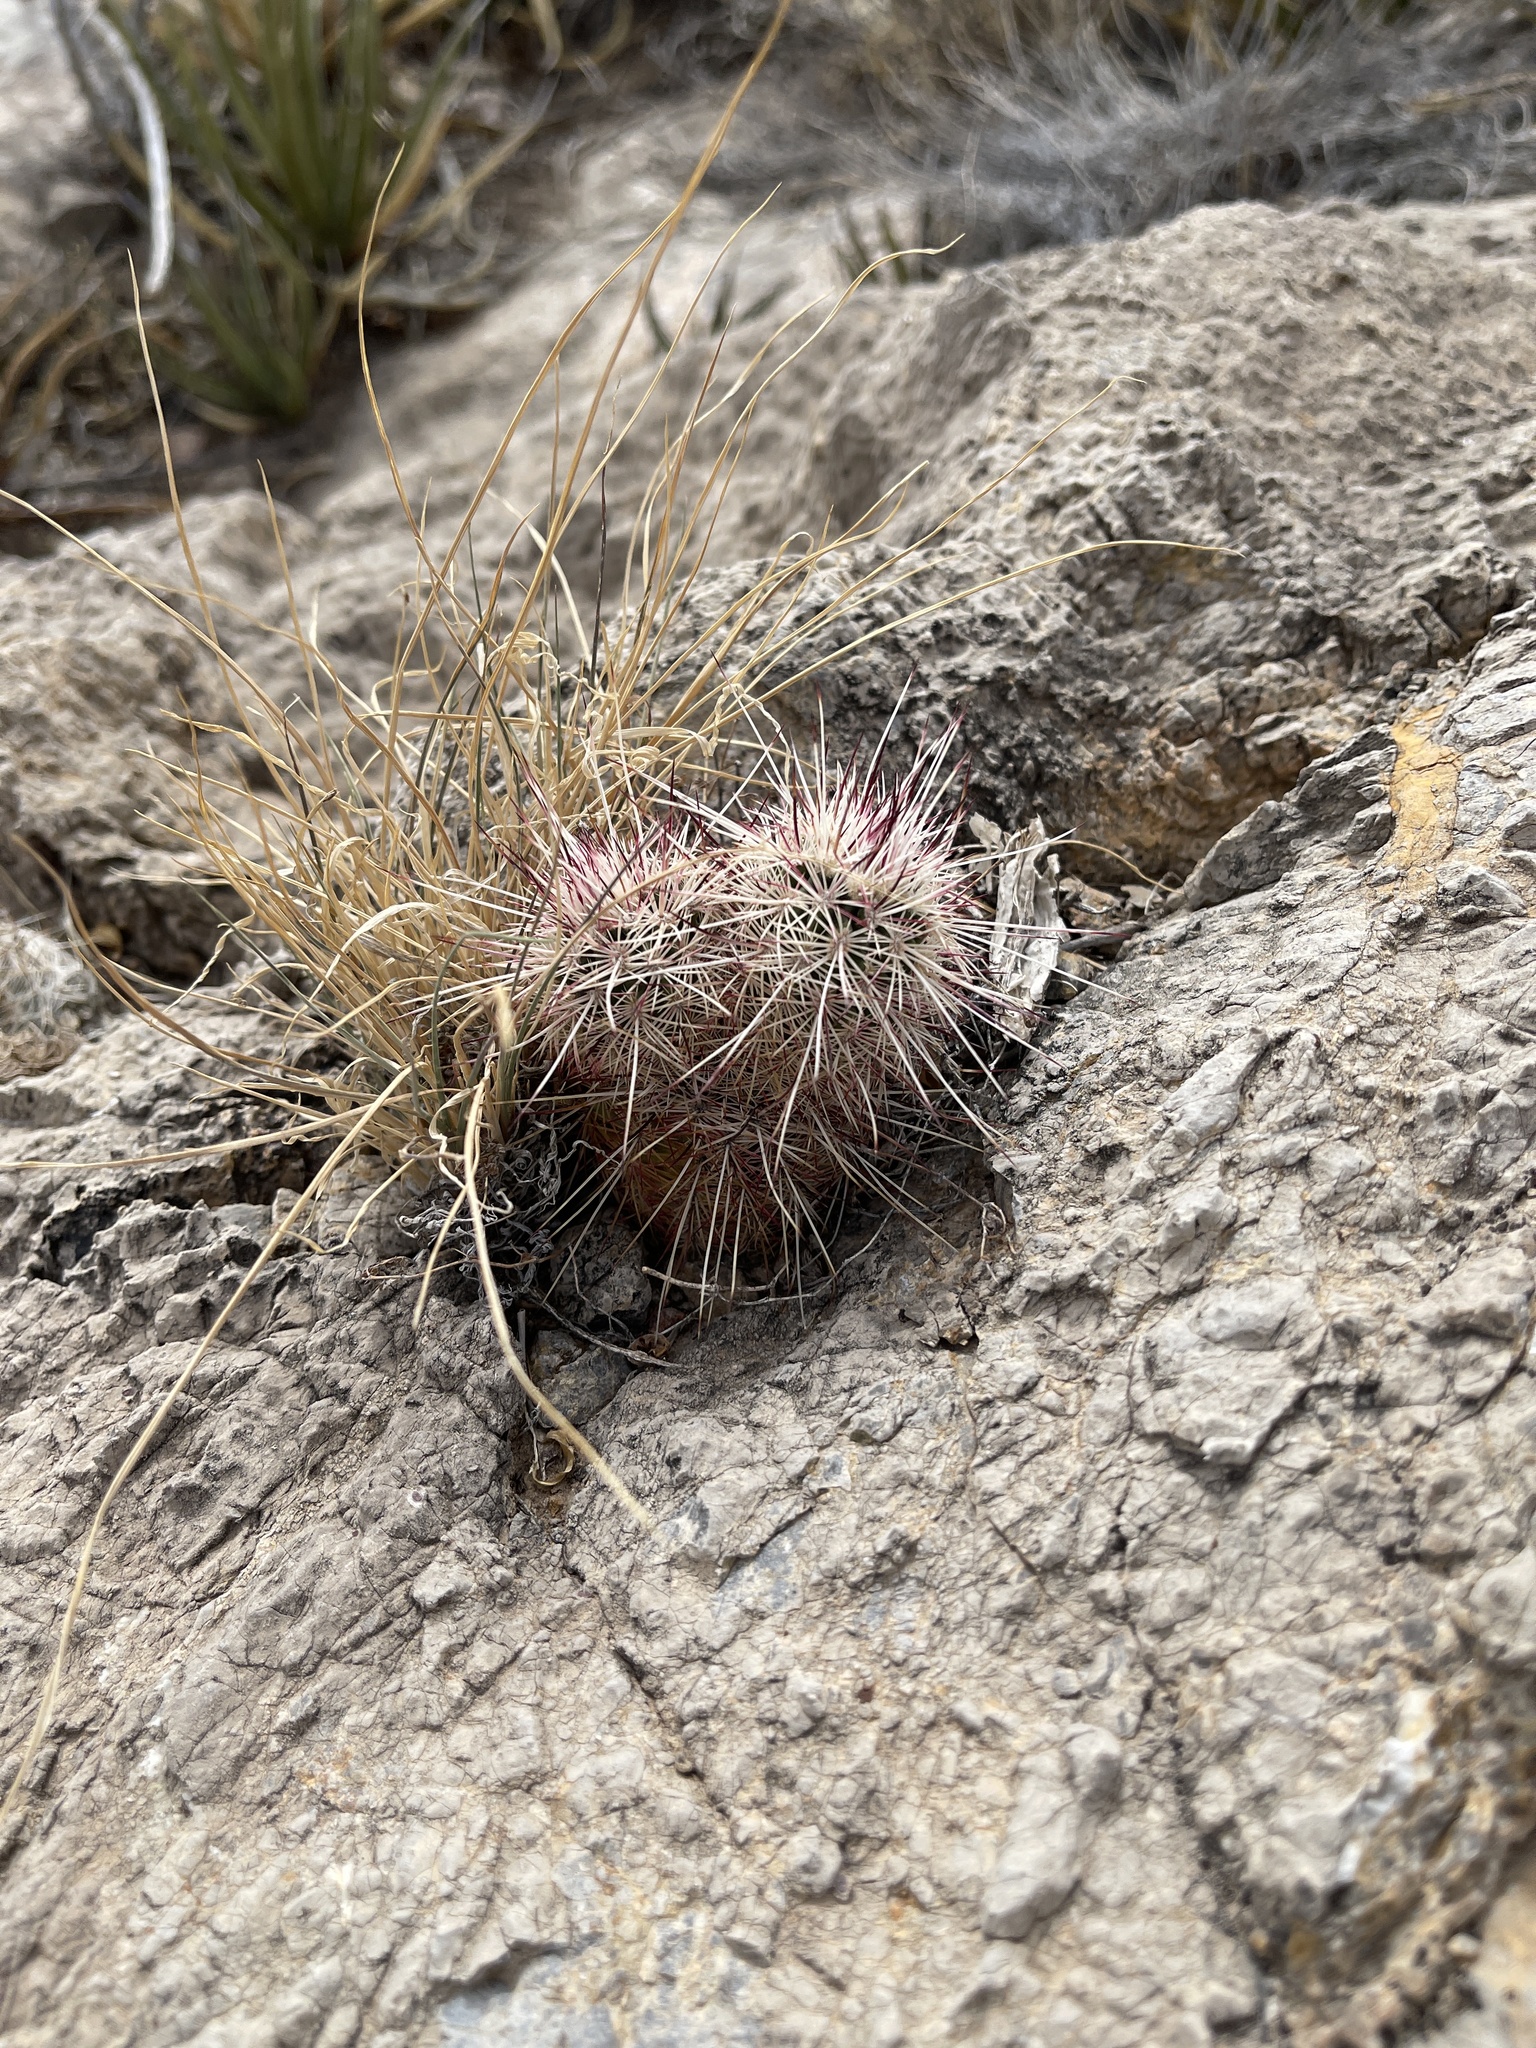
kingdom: Plantae
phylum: Tracheophyta
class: Magnoliopsida
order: Caryophyllales
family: Cactaceae
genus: Echinocereus
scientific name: Echinocereus viridiflorus
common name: Nylon hedgehog cactus
